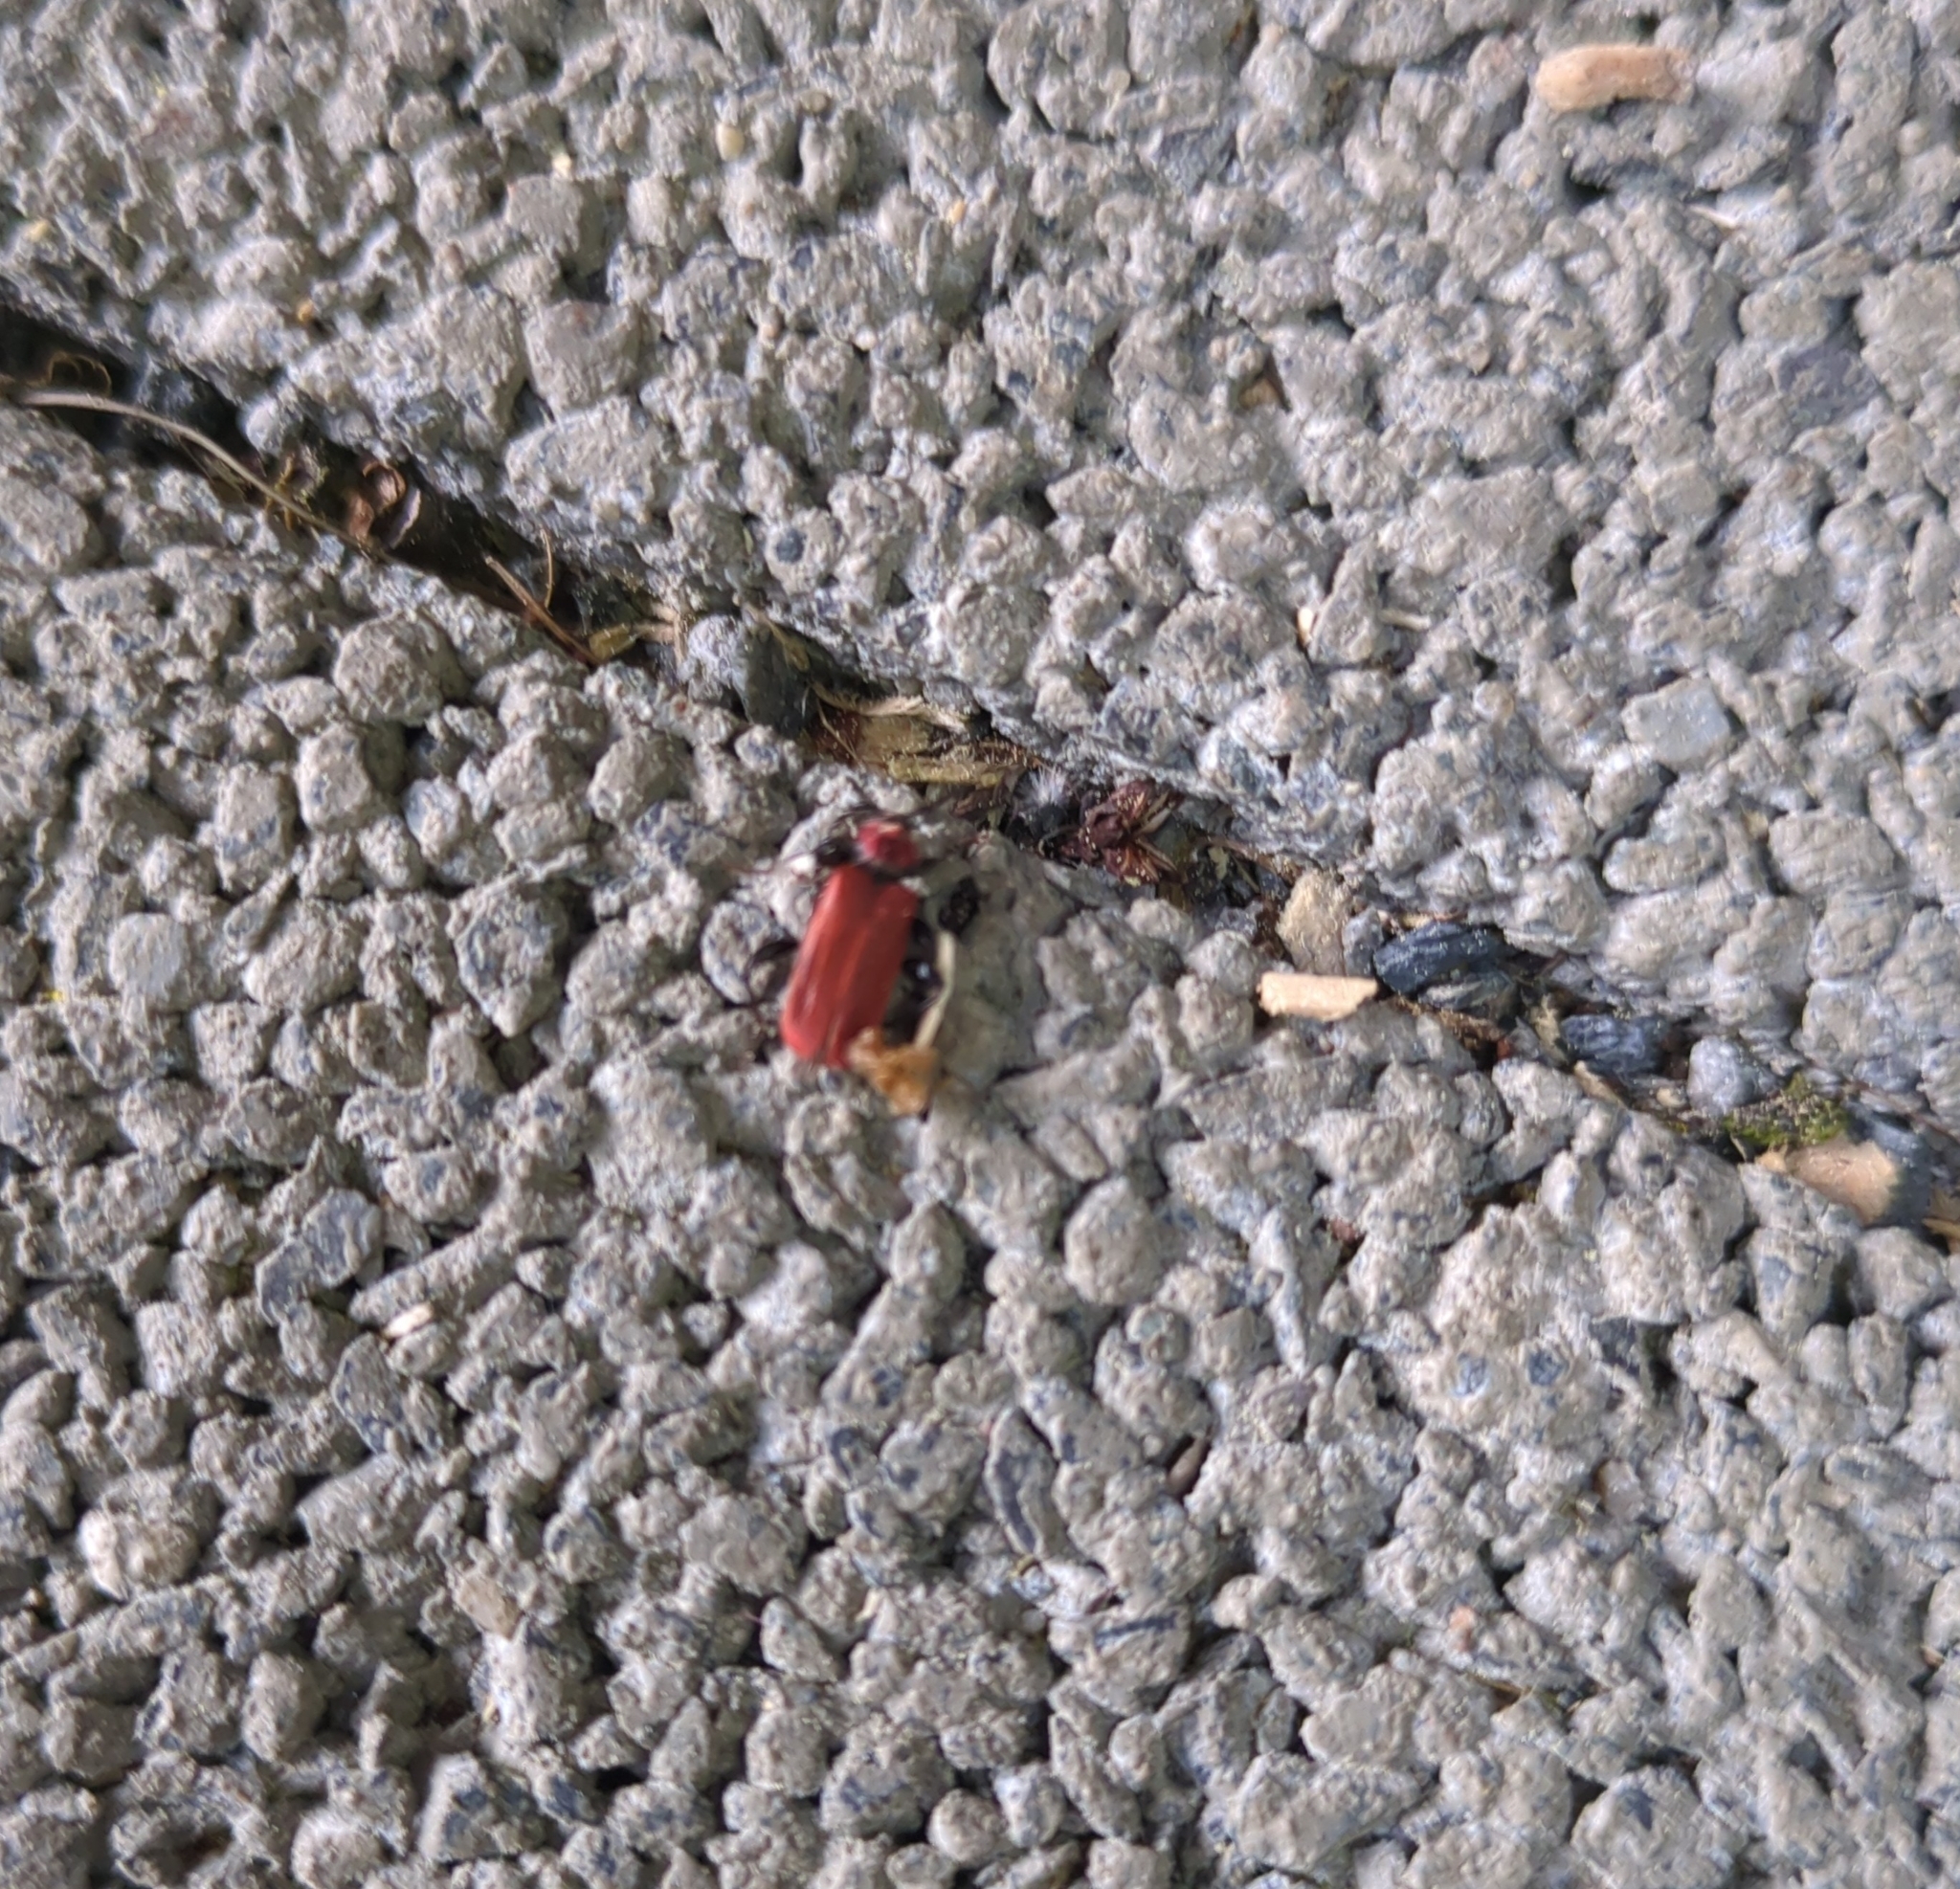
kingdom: Animalia
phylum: Arthropoda
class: Insecta
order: Coleoptera
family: Cerambycidae
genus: Pyrrhidium
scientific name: Pyrrhidium sanguineum
